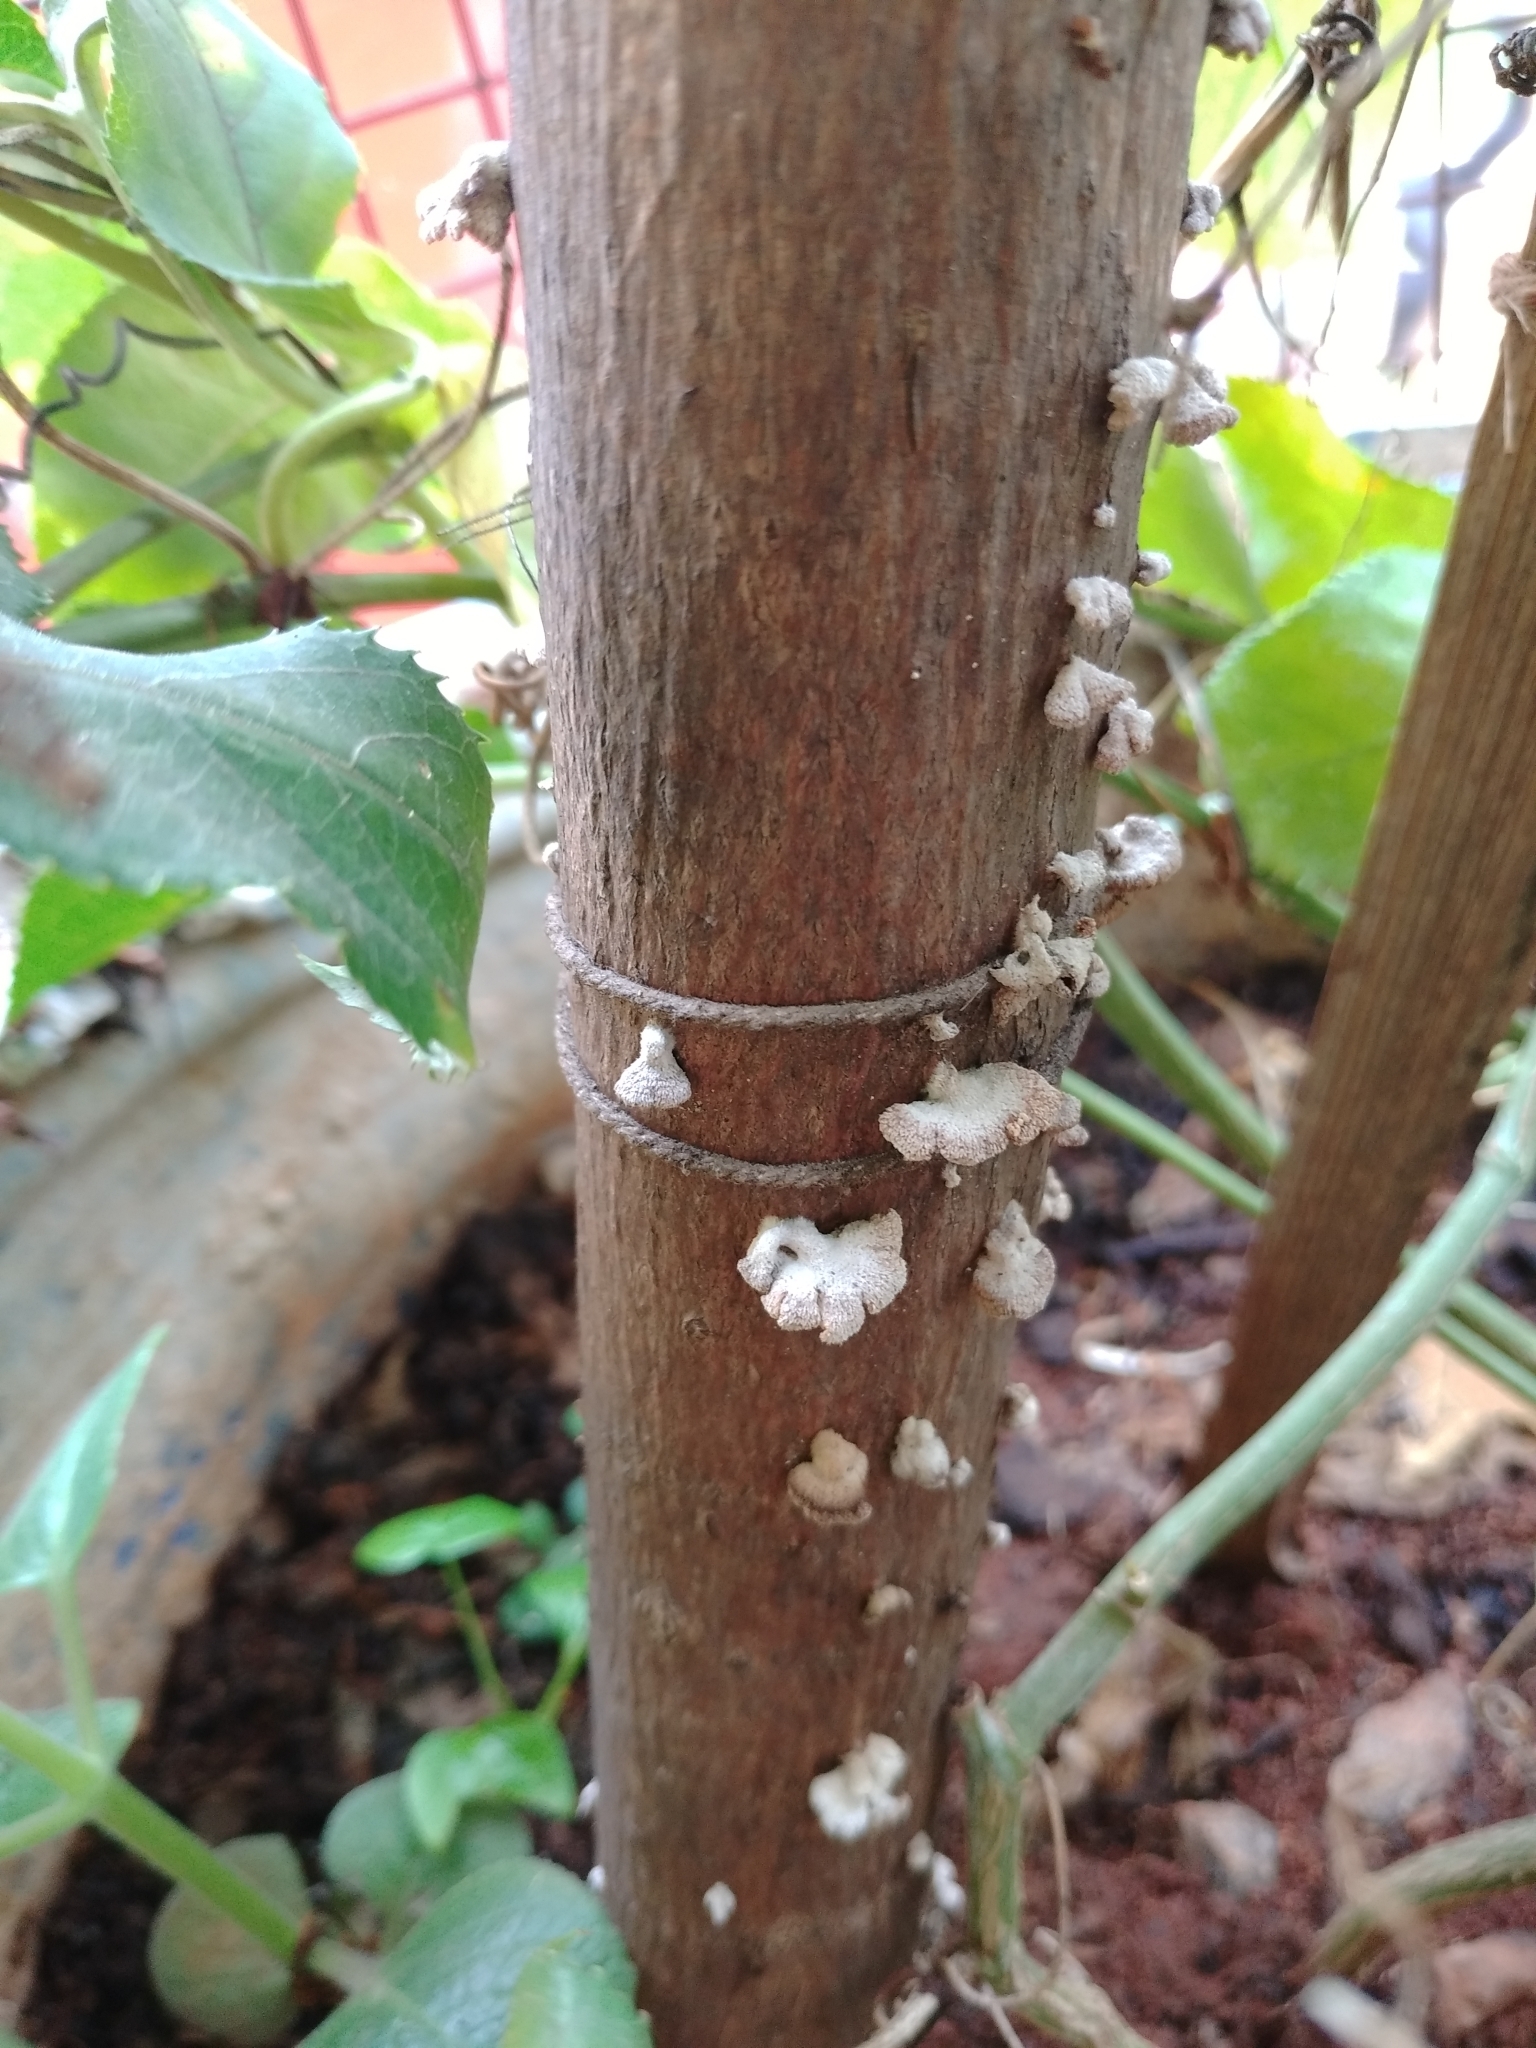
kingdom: Fungi
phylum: Basidiomycota
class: Agaricomycetes
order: Agaricales
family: Schizophyllaceae
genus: Schizophyllum
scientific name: Schizophyllum commune
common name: Common porecrust
